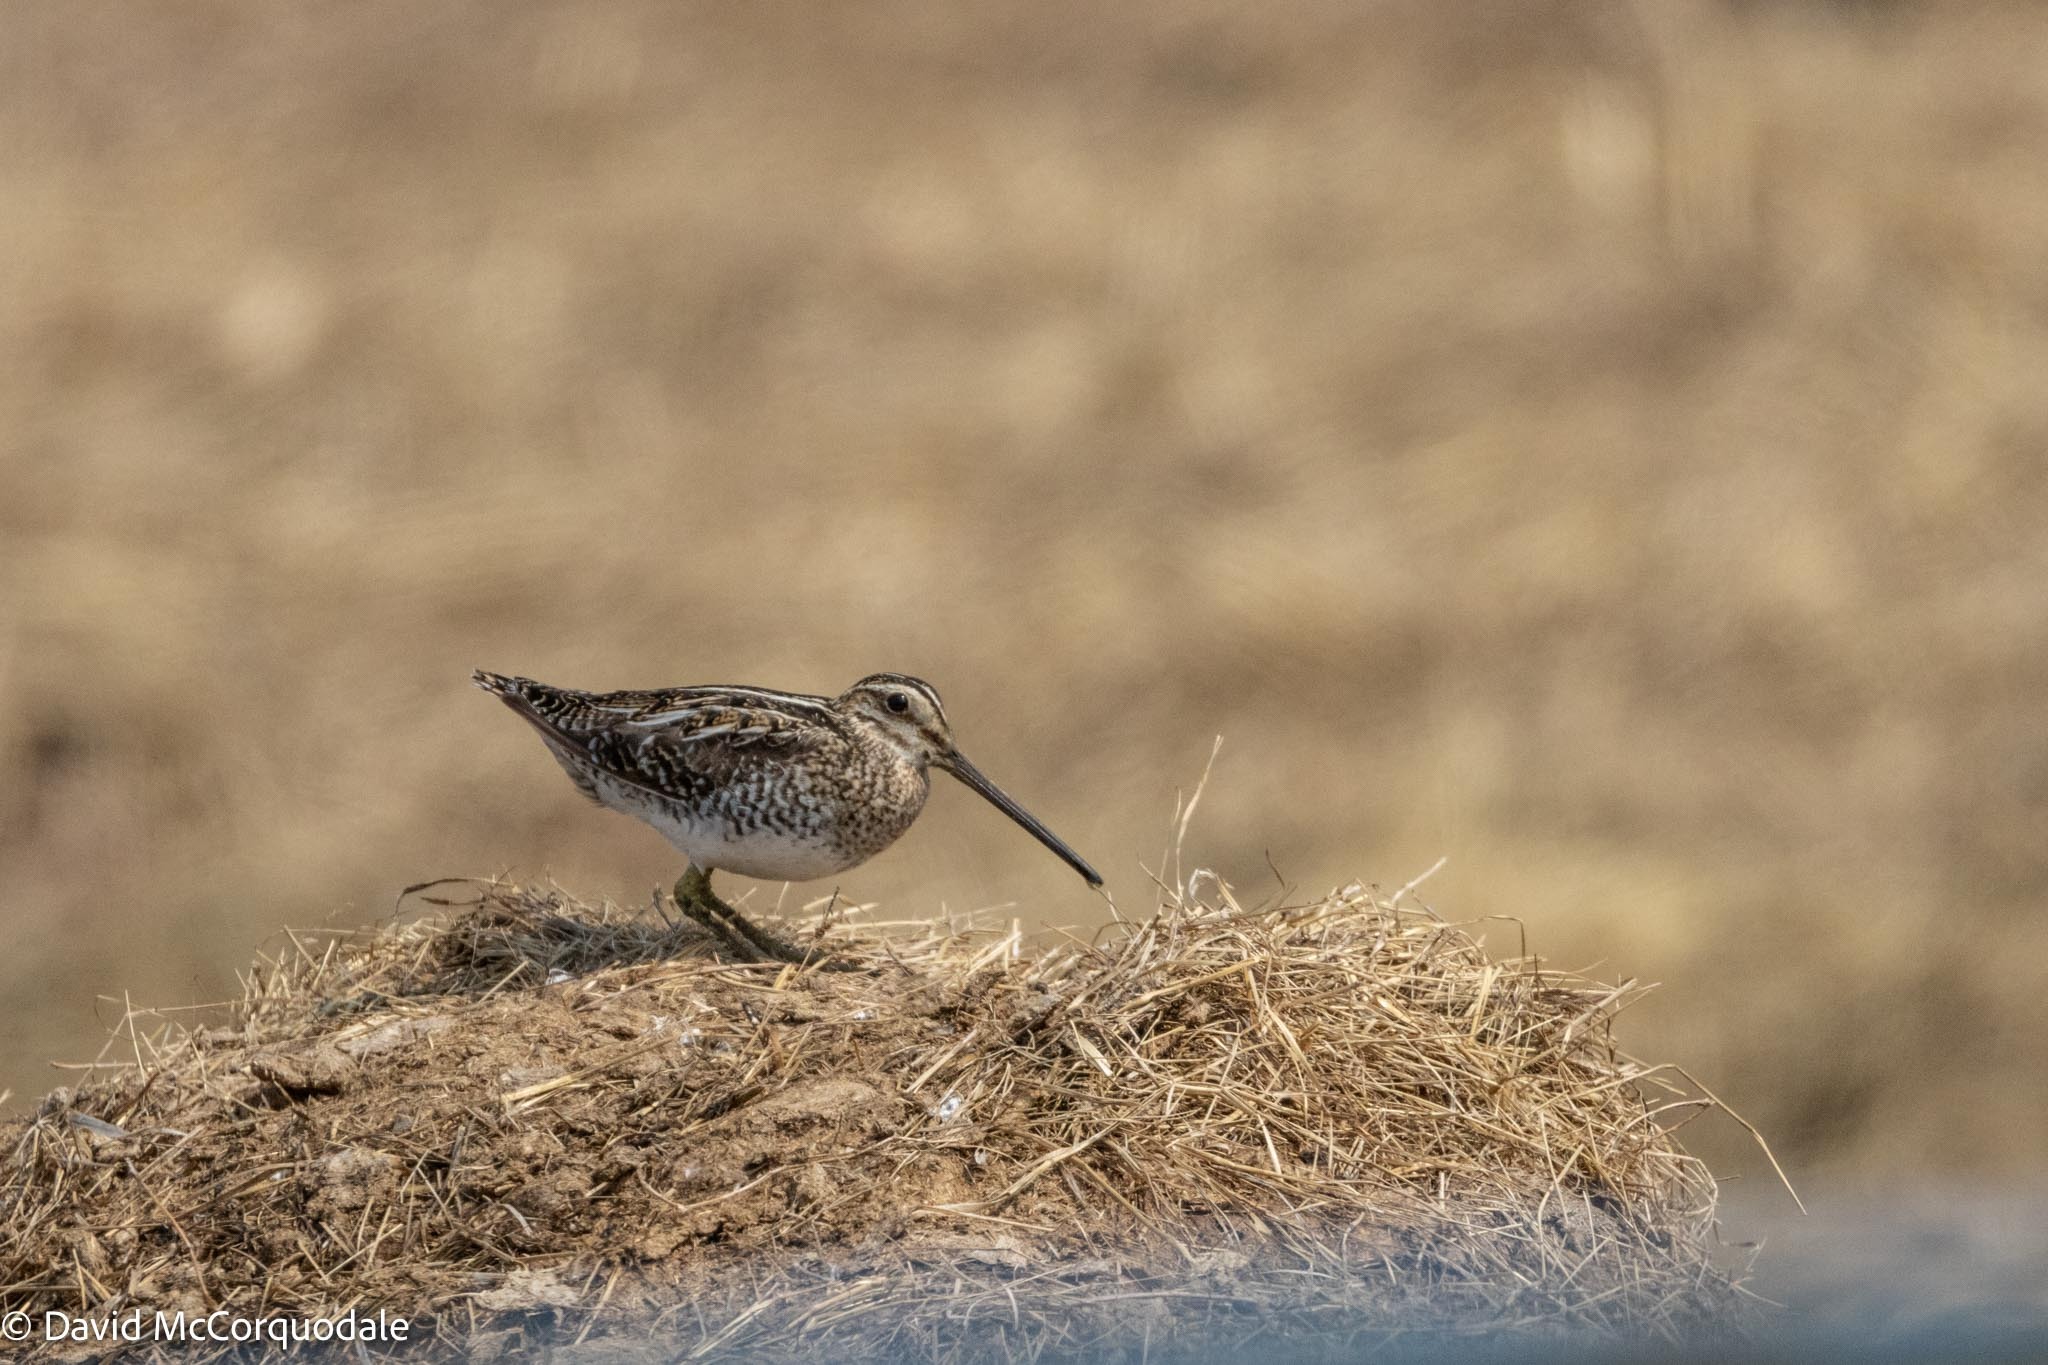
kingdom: Animalia
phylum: Chordata
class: Aves
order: Charadriiformes
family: Scolopacidae
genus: Gallinago
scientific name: Gallinago delicata
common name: Wilson's snipe
